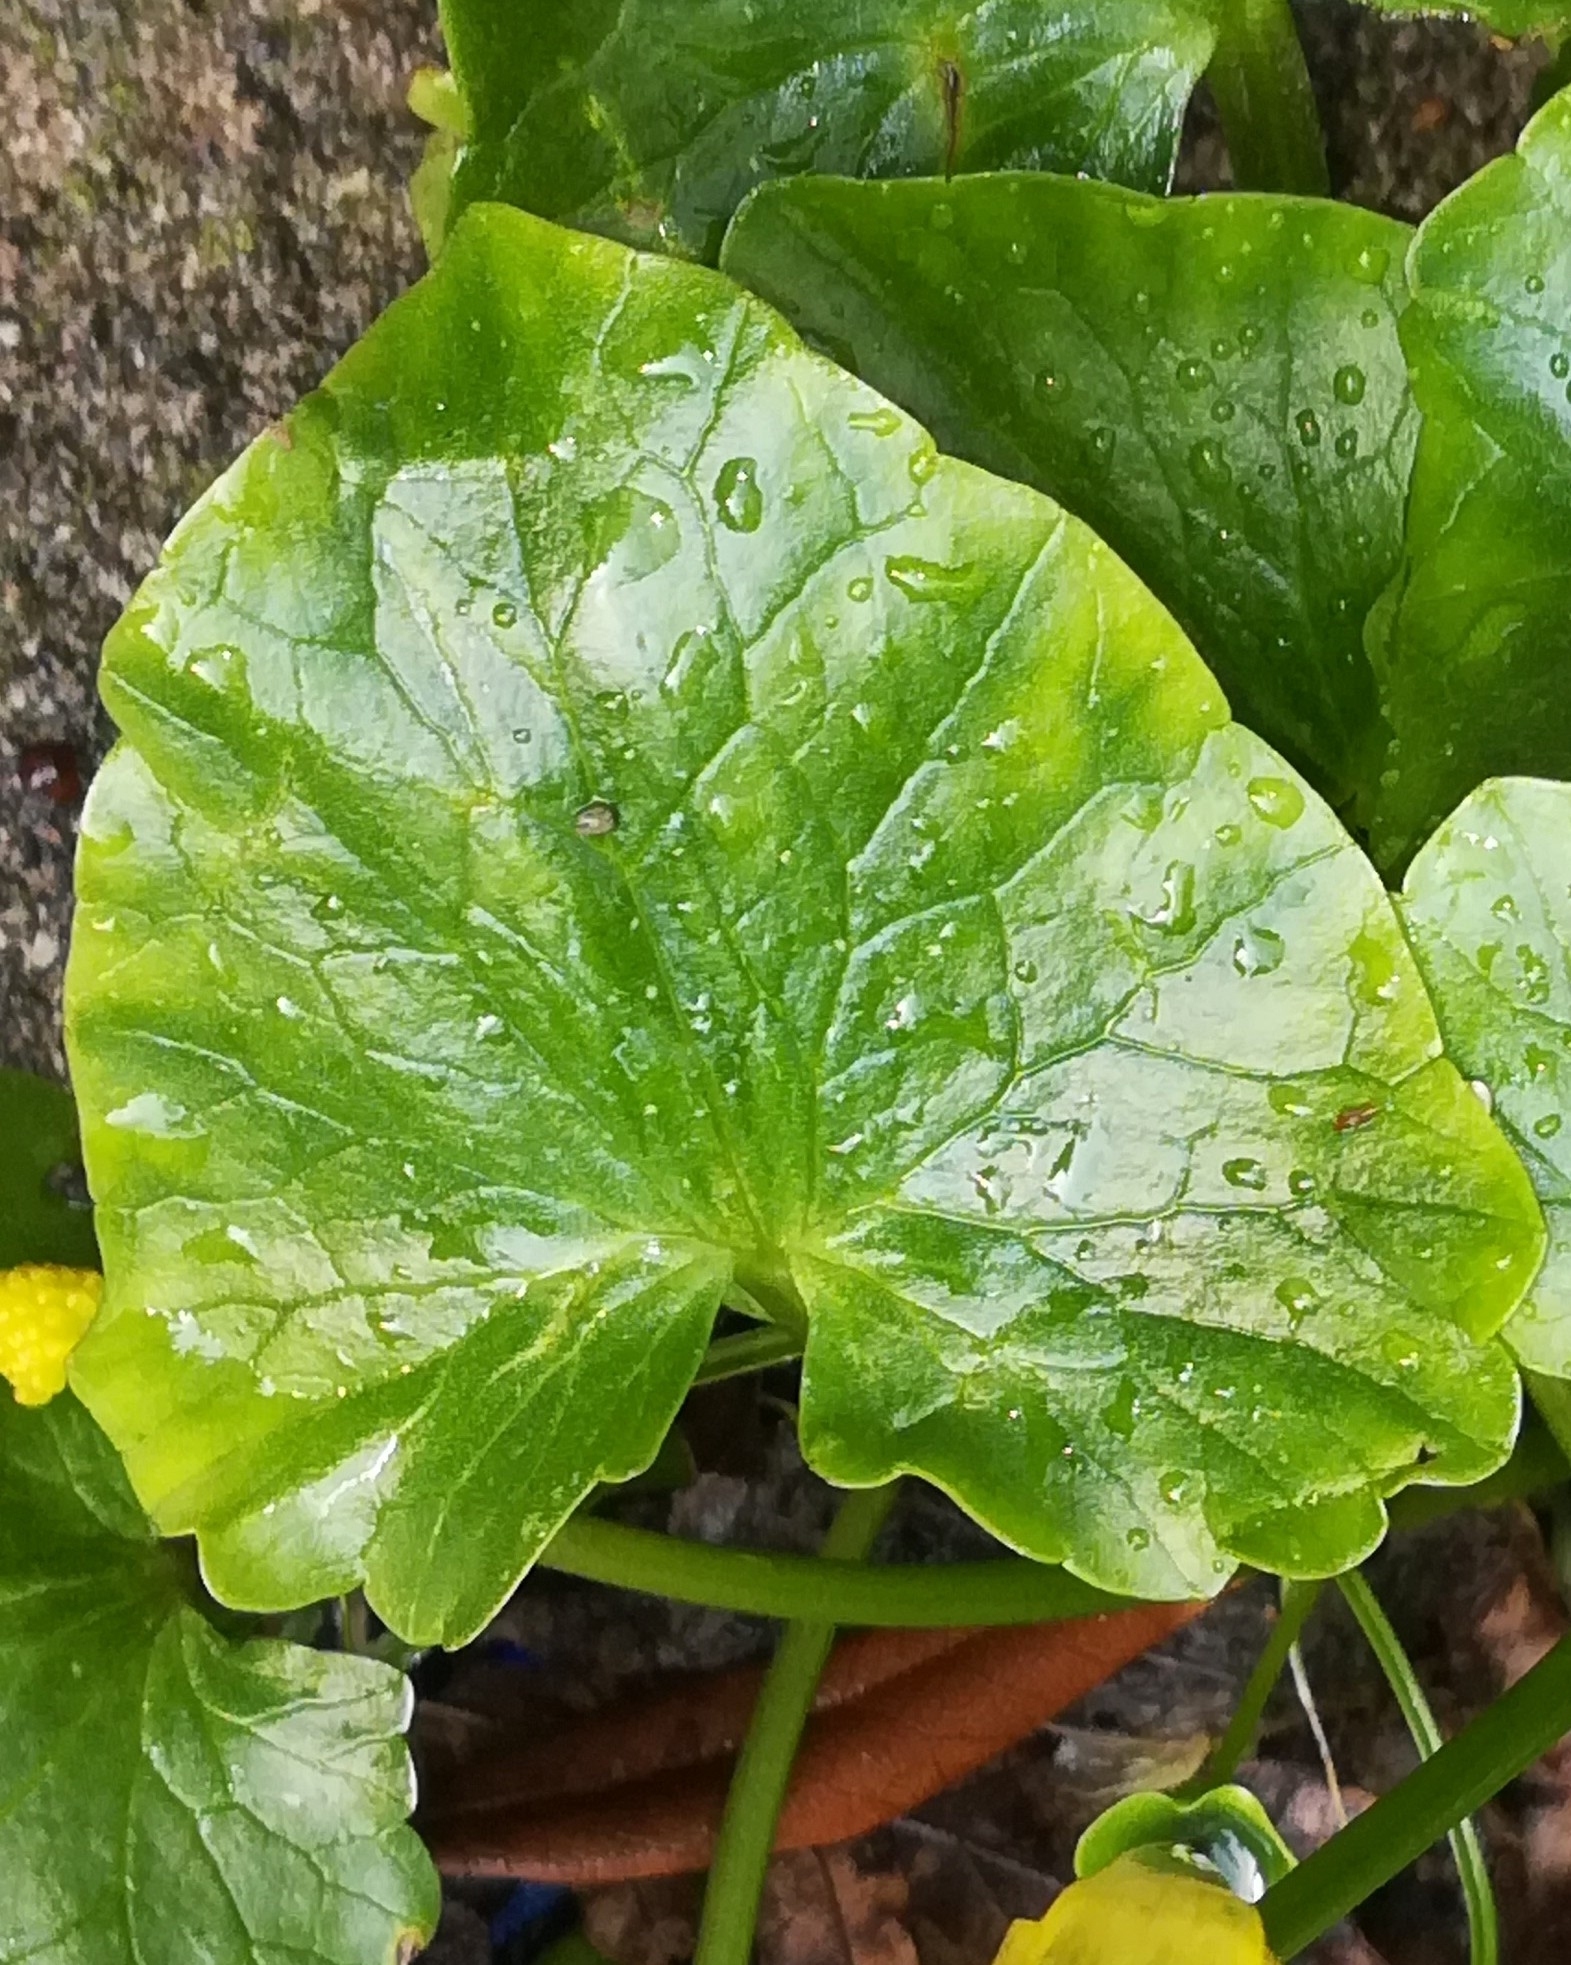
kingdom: Plantae
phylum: Tracheophyta
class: Magnoliopsida
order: Ranunculales
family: Ranunculaceae
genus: Ficaria
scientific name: Ficaria verna
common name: Lesser celandine
